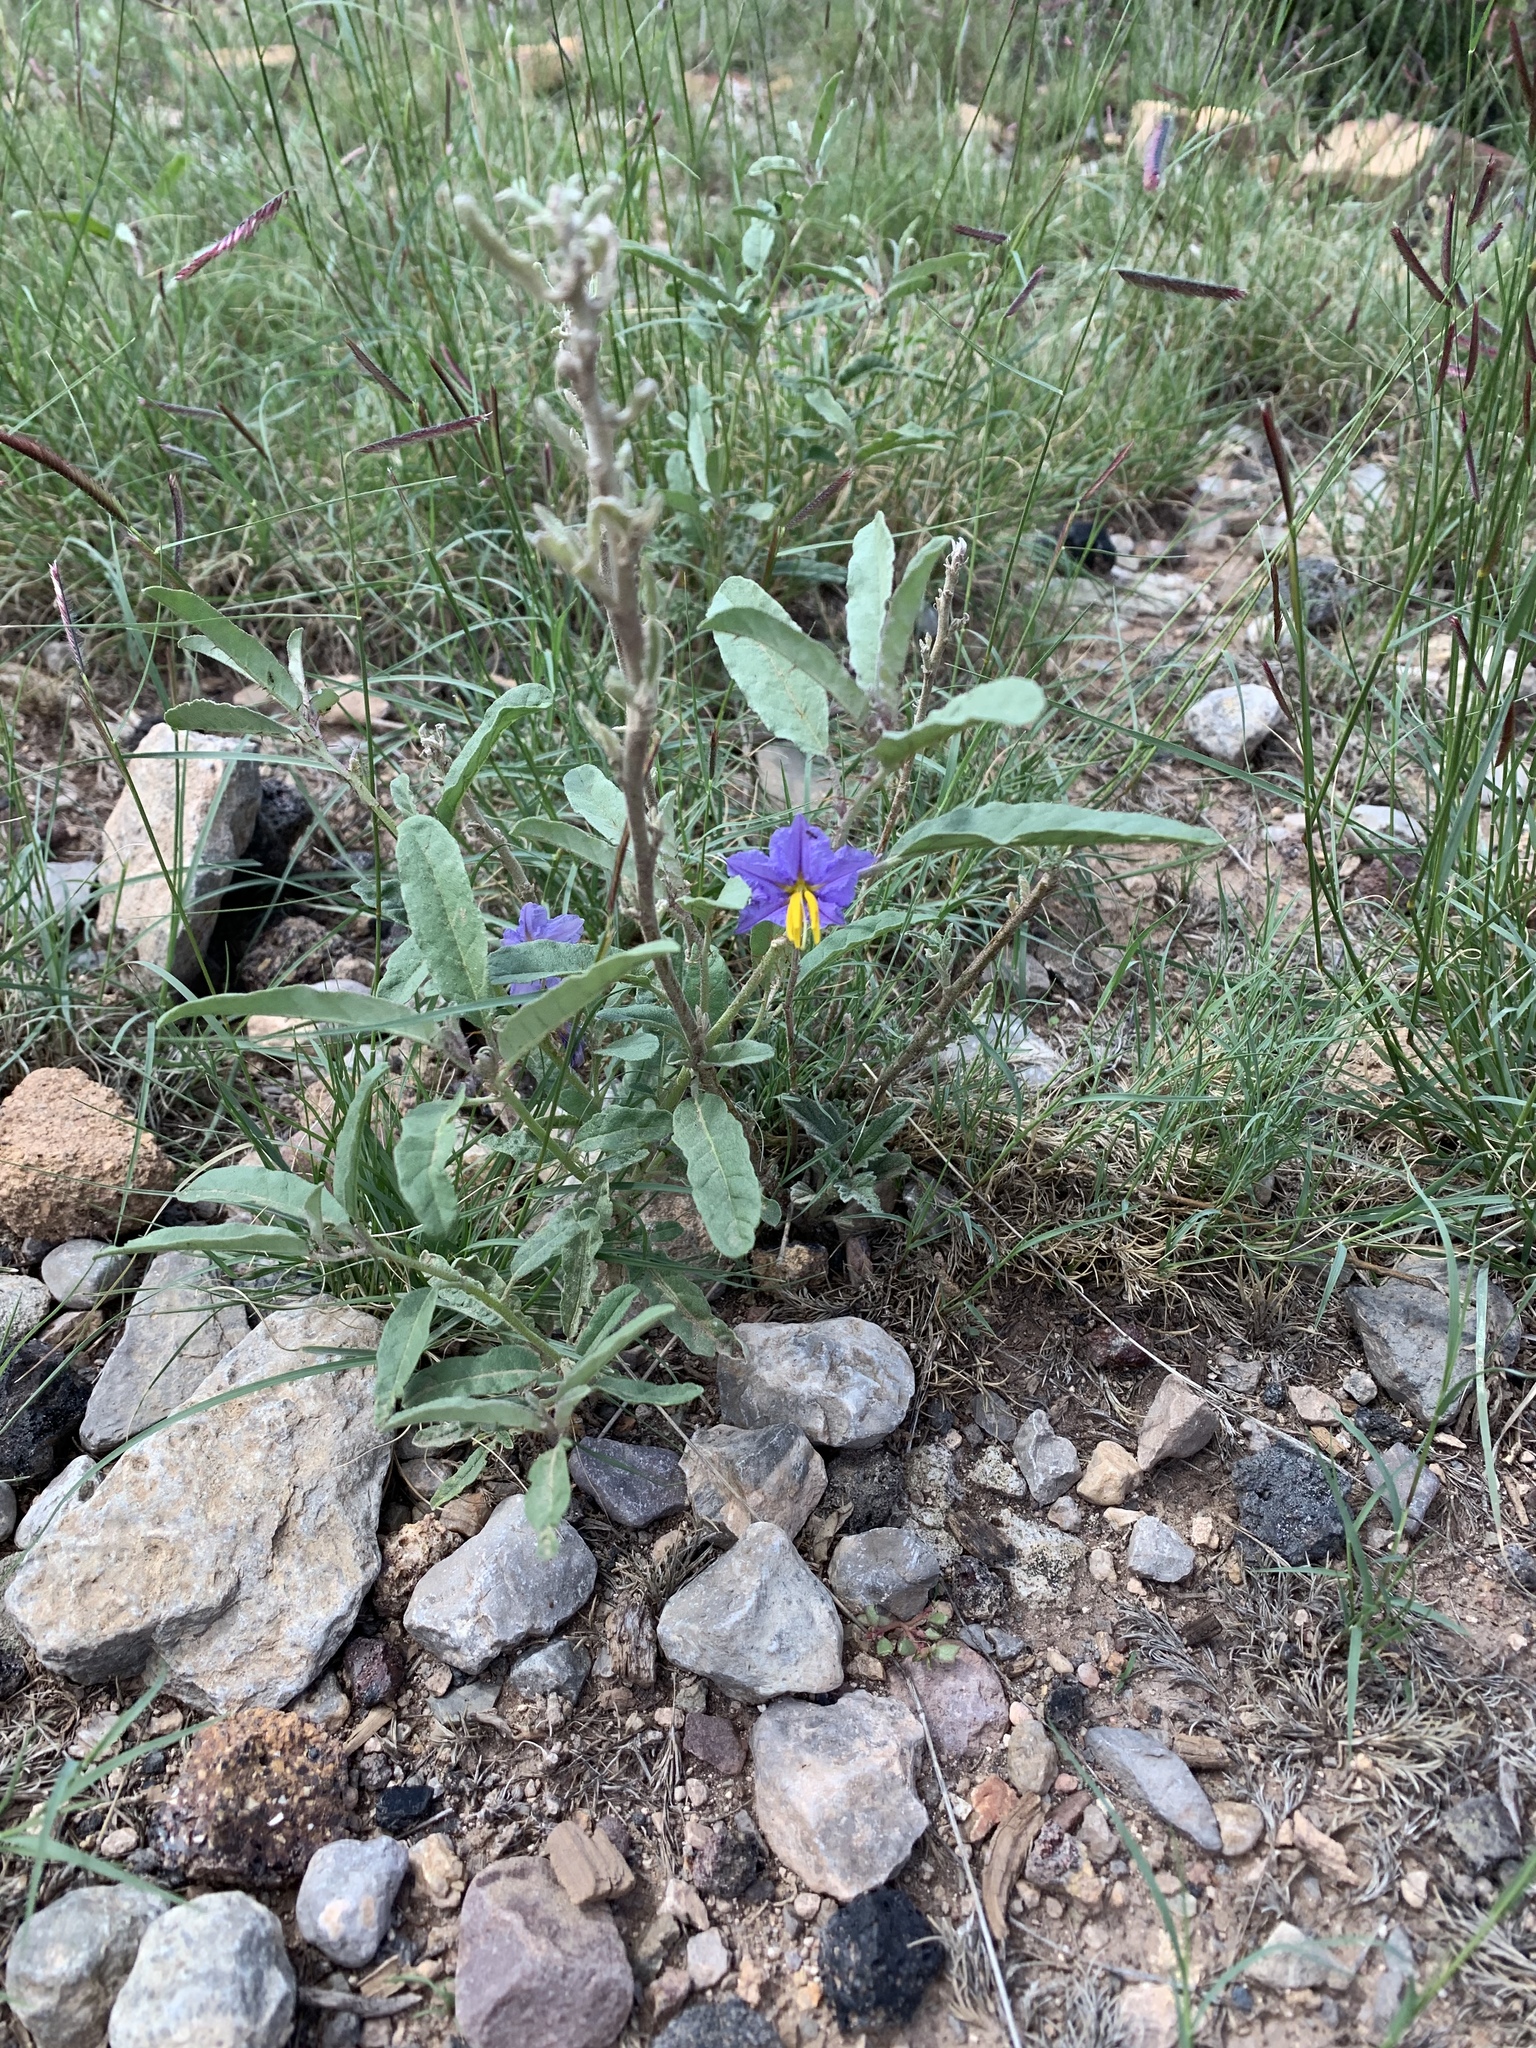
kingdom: Plantae
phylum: Tracheophyta
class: Magnoliopsida
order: Solanales
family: Solanaceae
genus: Solanum
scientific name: Solanum elaeagnifolium
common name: Silverleaf nightshade
